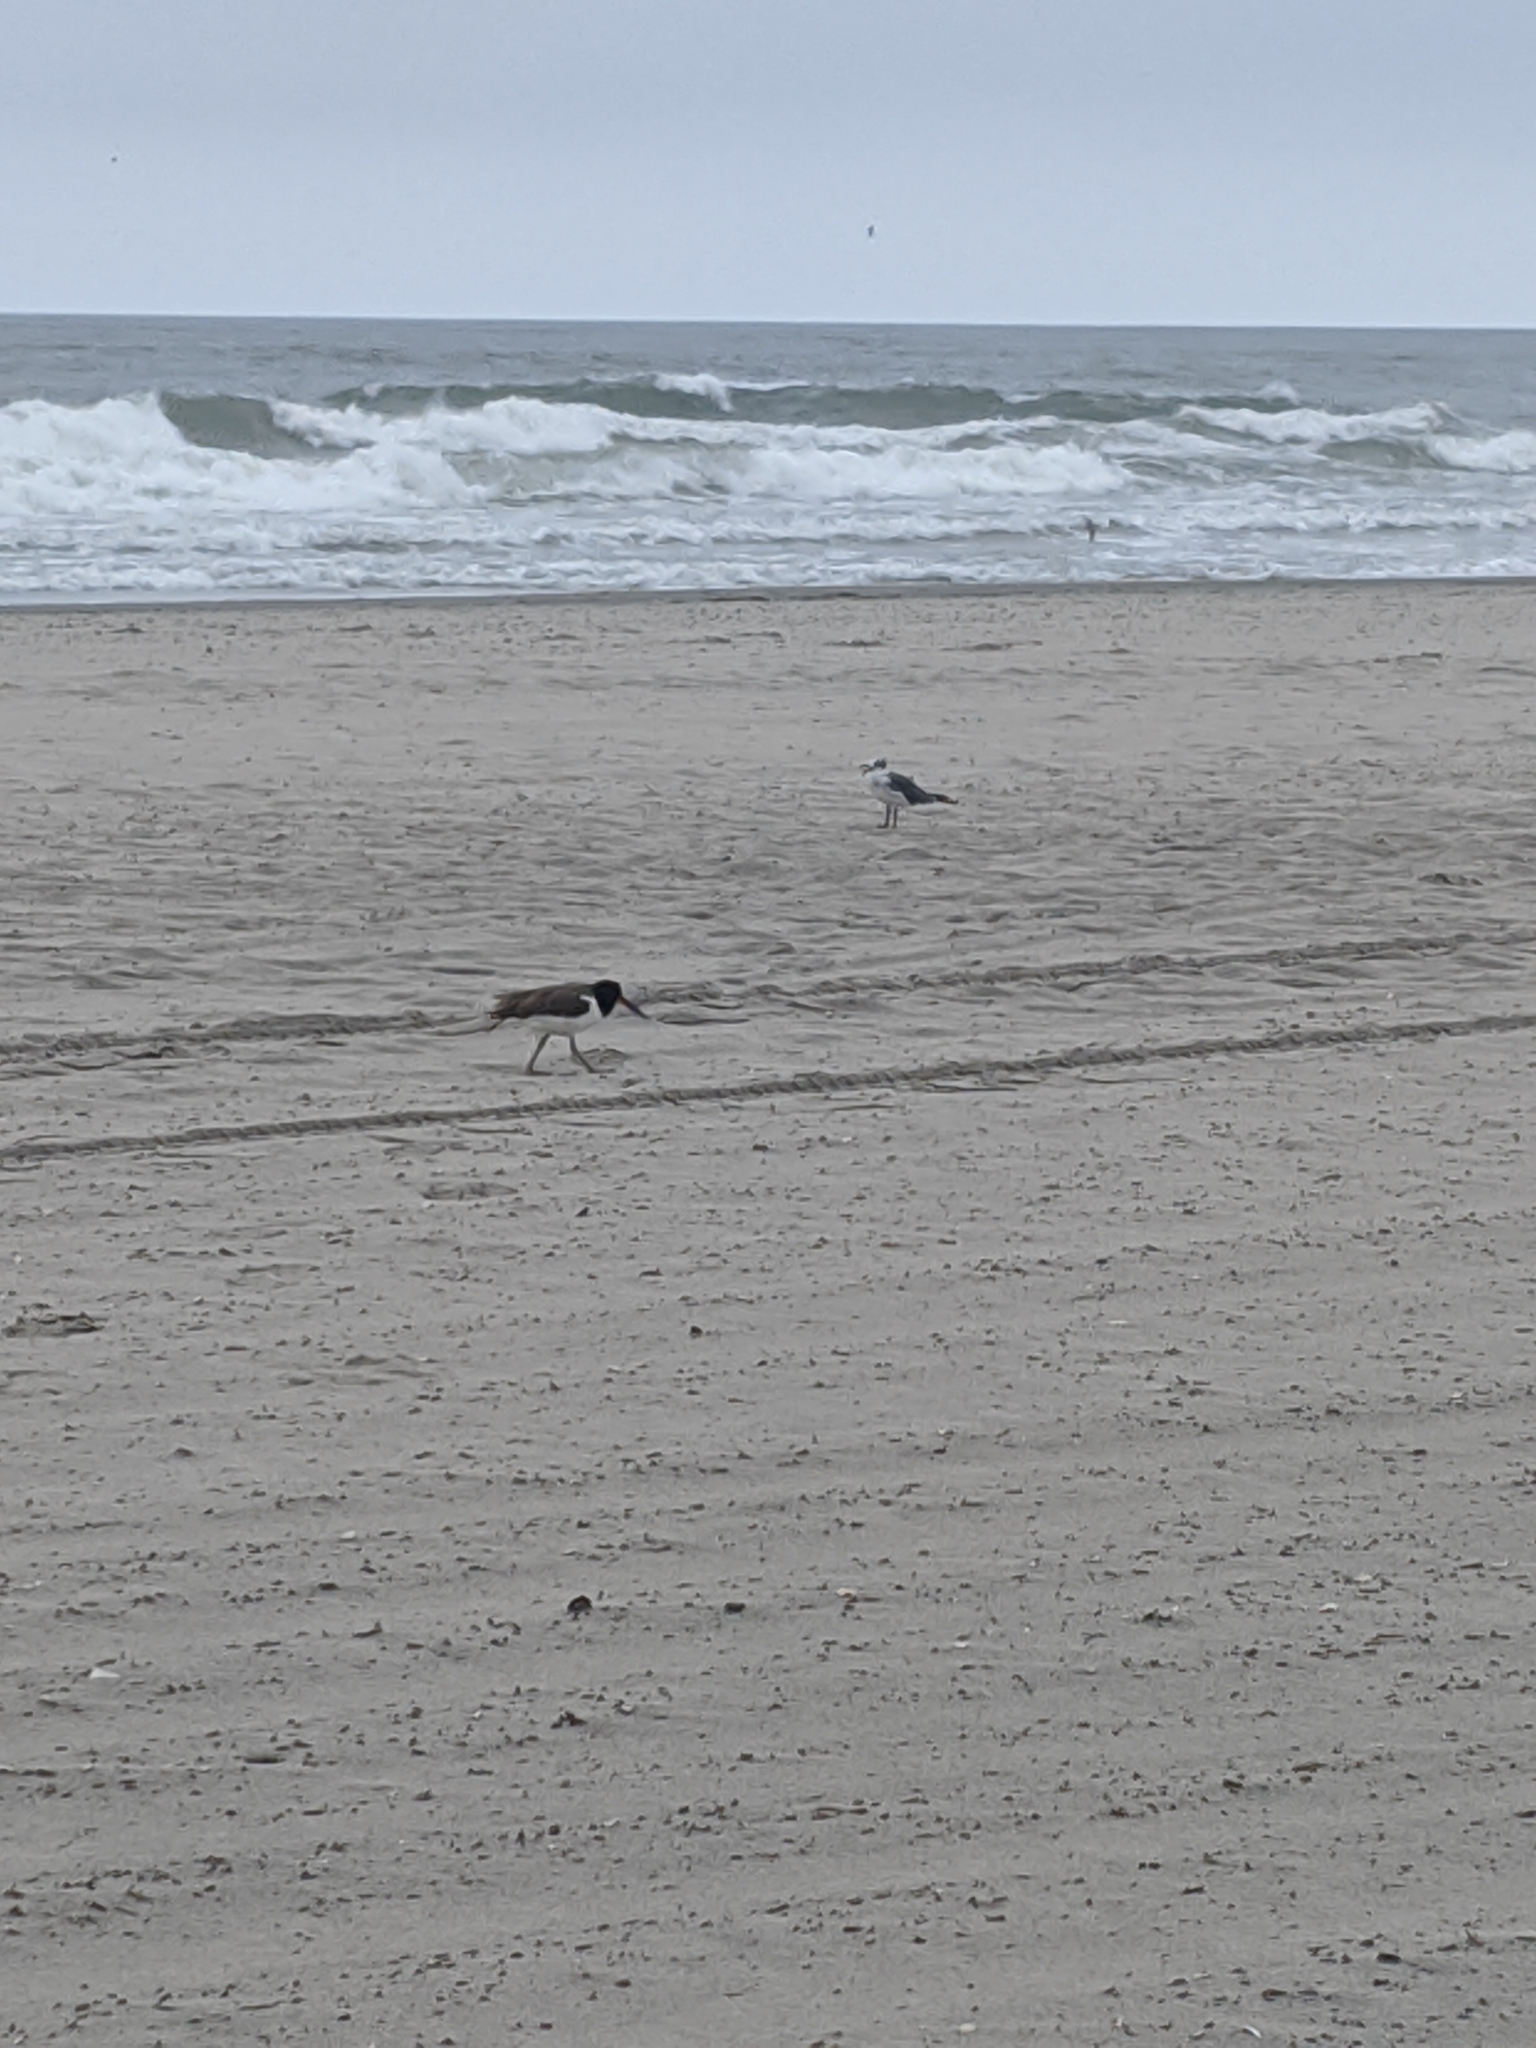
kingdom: Animalia
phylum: Chordata
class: Aves
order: Charadriiformes
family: Haematopodidae
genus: Haematopus
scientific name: Haematopus palliatus
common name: American oystercatcher
